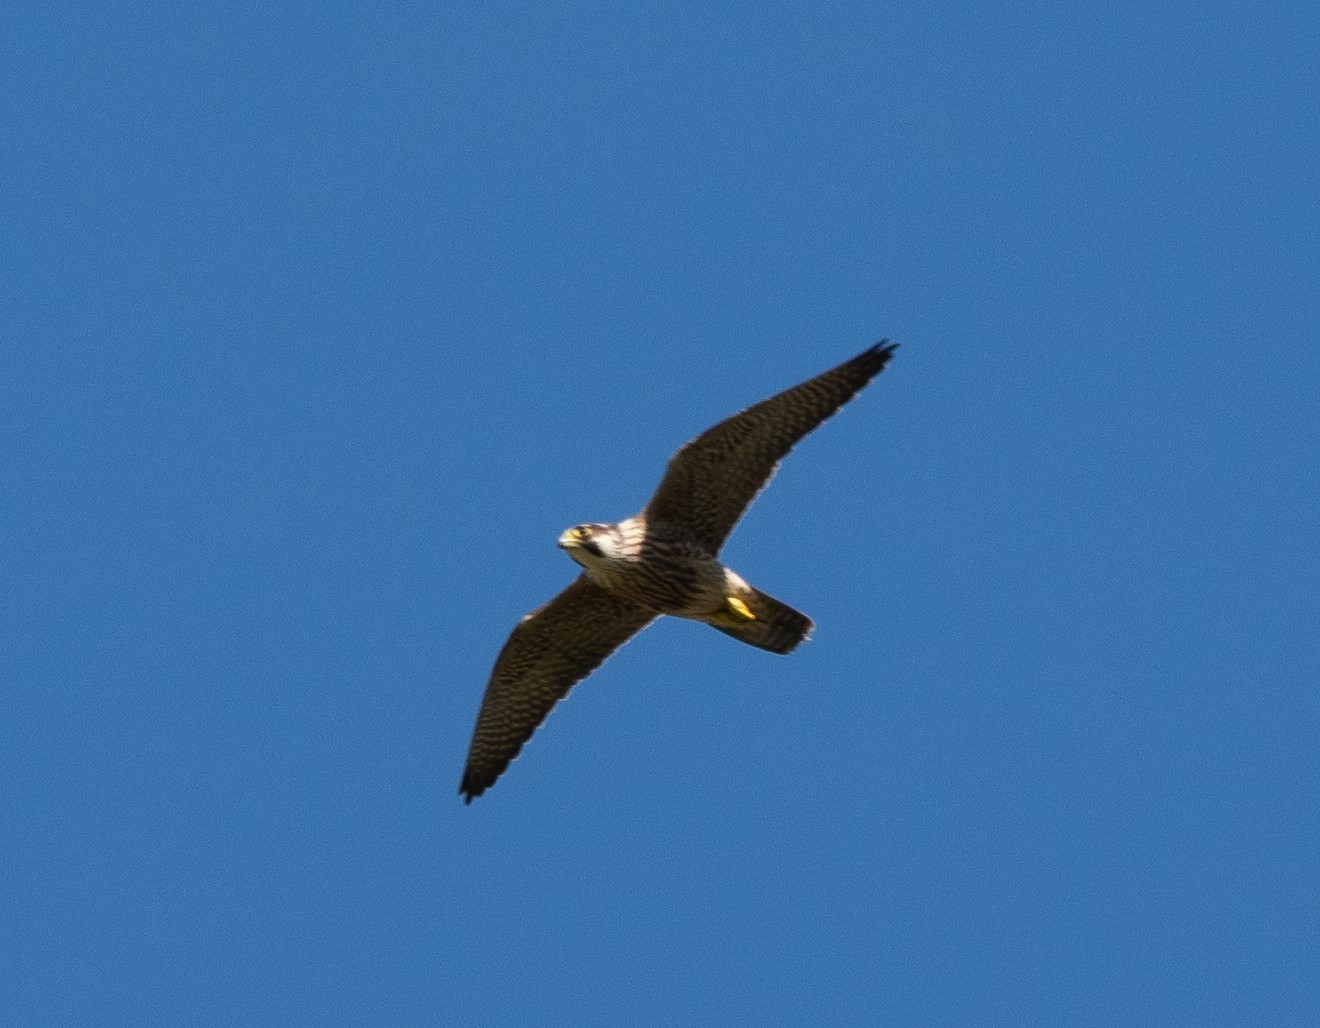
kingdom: Animalia
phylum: Chordata
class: Aves
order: Falconiformes
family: Falconidae
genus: Falco
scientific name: Falco peregrinus
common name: Peregrine falcon
